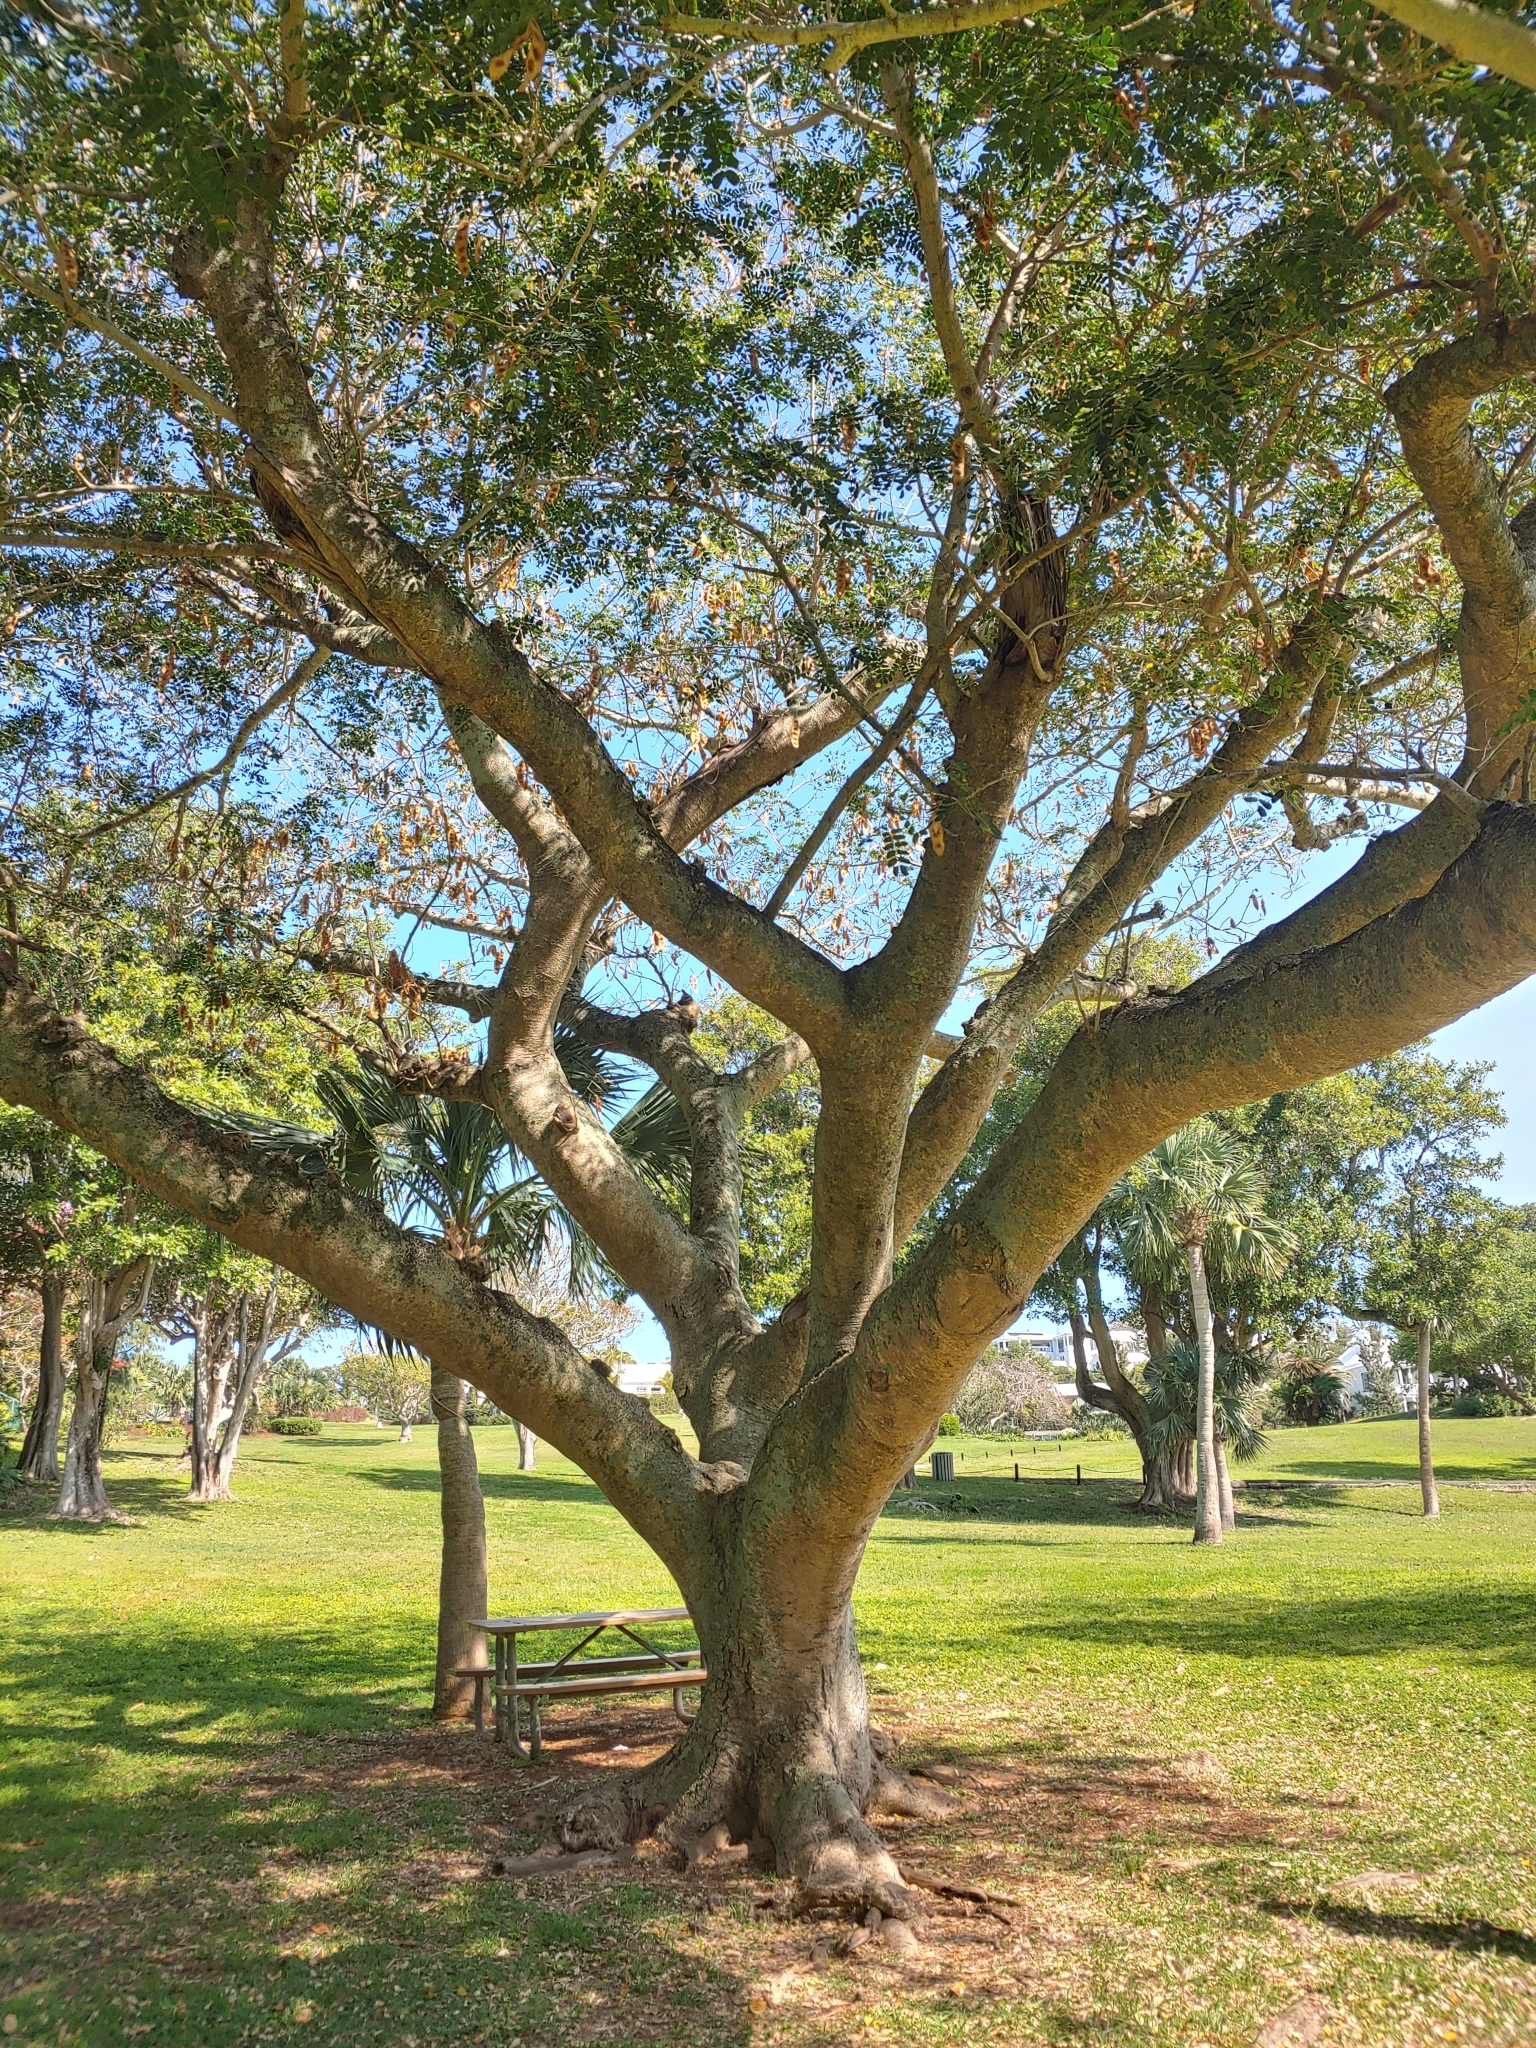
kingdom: Plantae
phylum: Tracheophyta
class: Magnoliopsida
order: Fabales
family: Fabaceae
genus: Albizia
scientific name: Albizia lebbeck
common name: Woman's tongue
